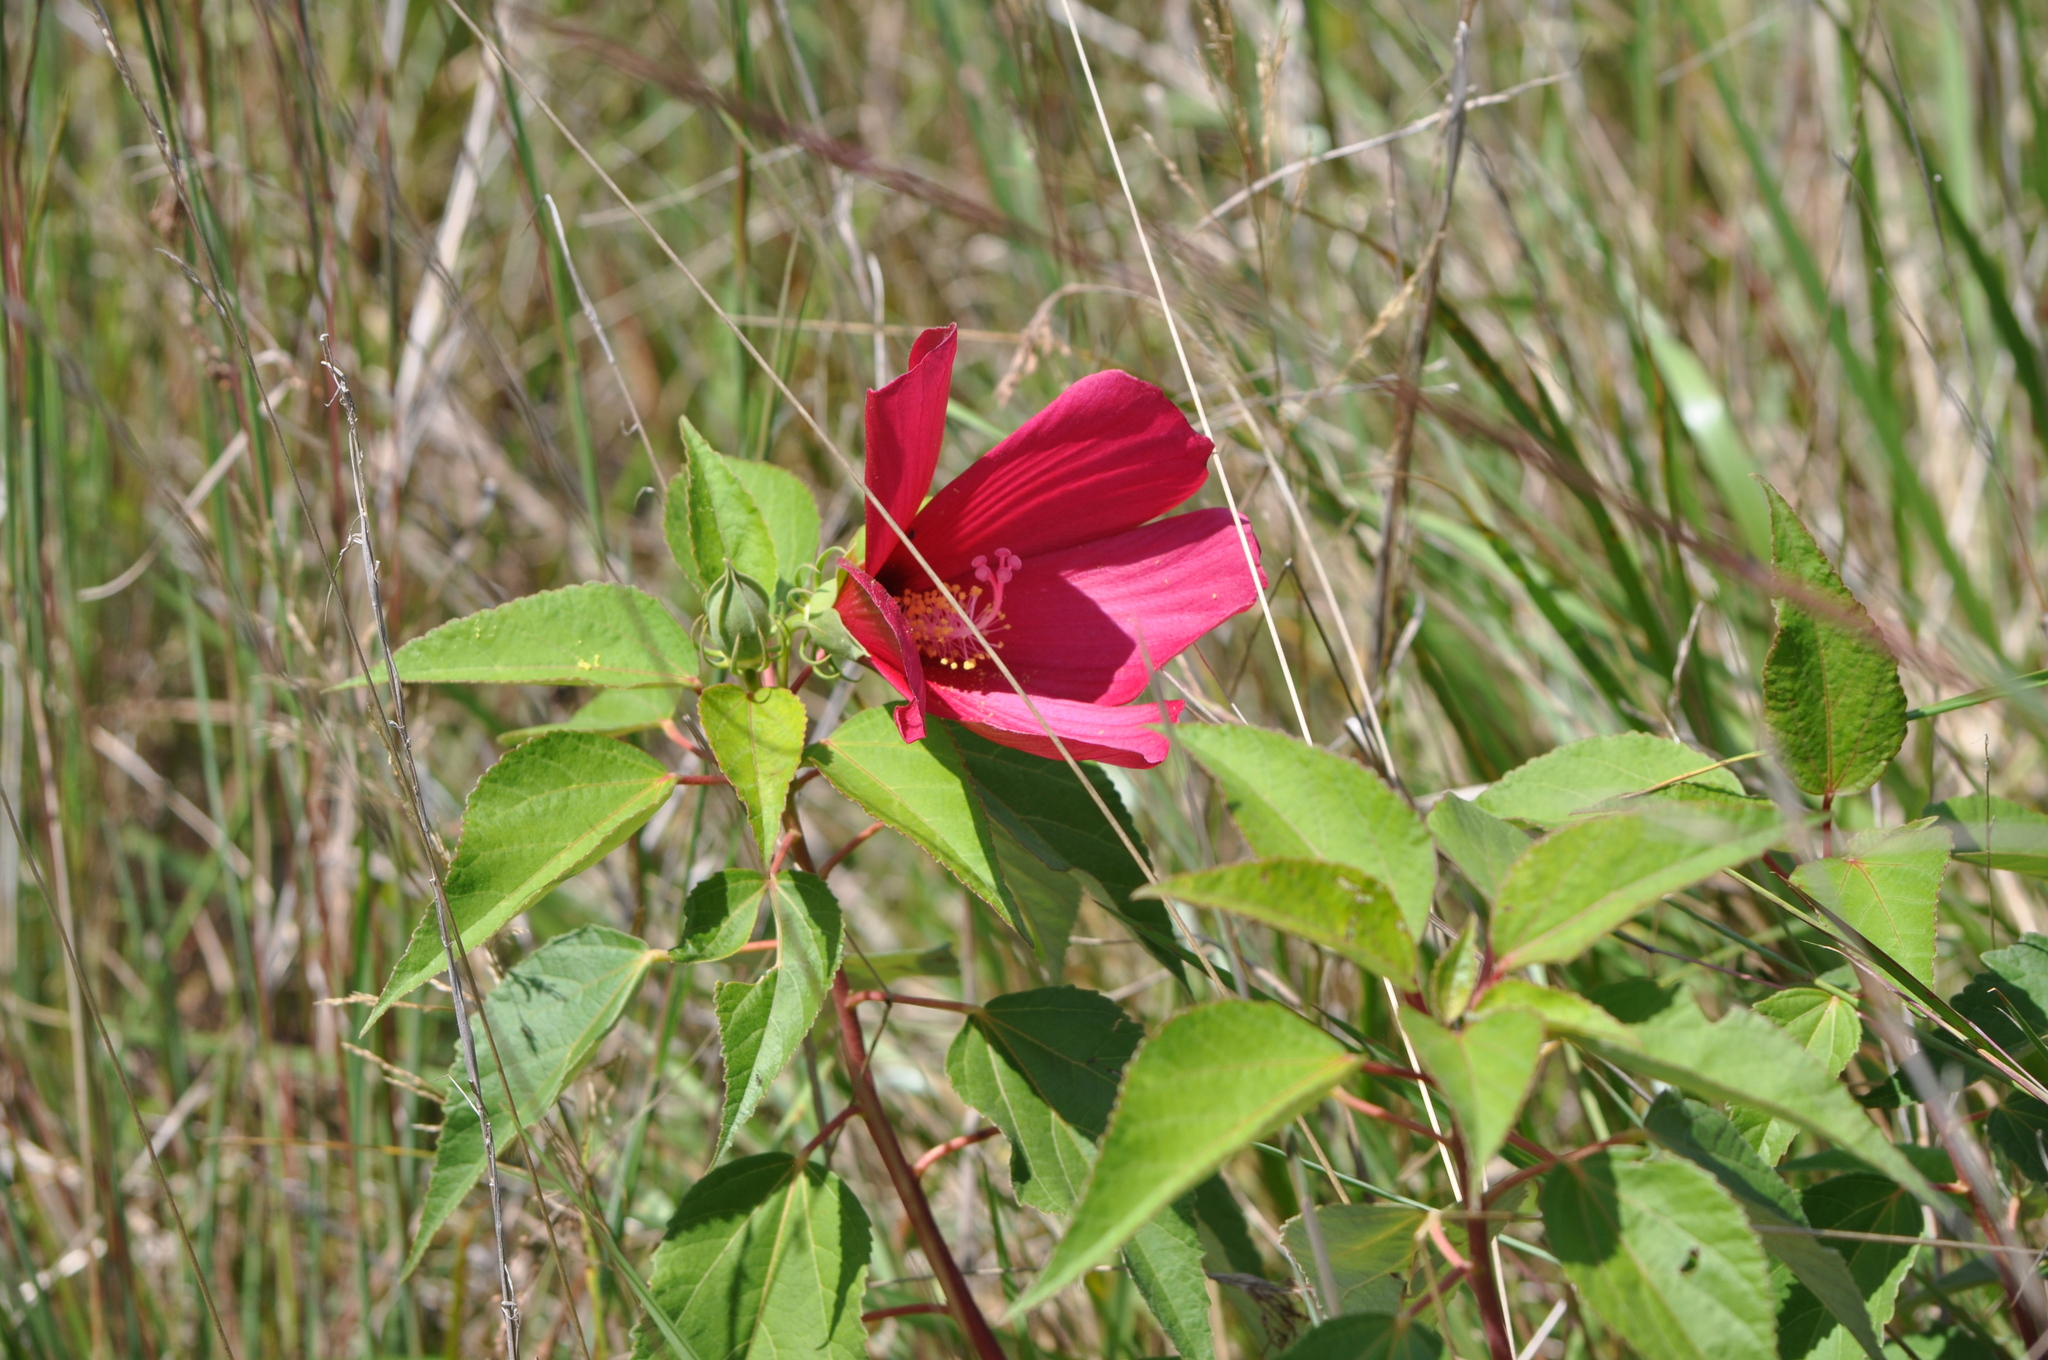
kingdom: Plantae
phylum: Tracheophyta
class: Magnoliopsida
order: Malvales
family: Malvaceae
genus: Hibiscus
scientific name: Hibiscus moscheutos
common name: Common rose-mallow
